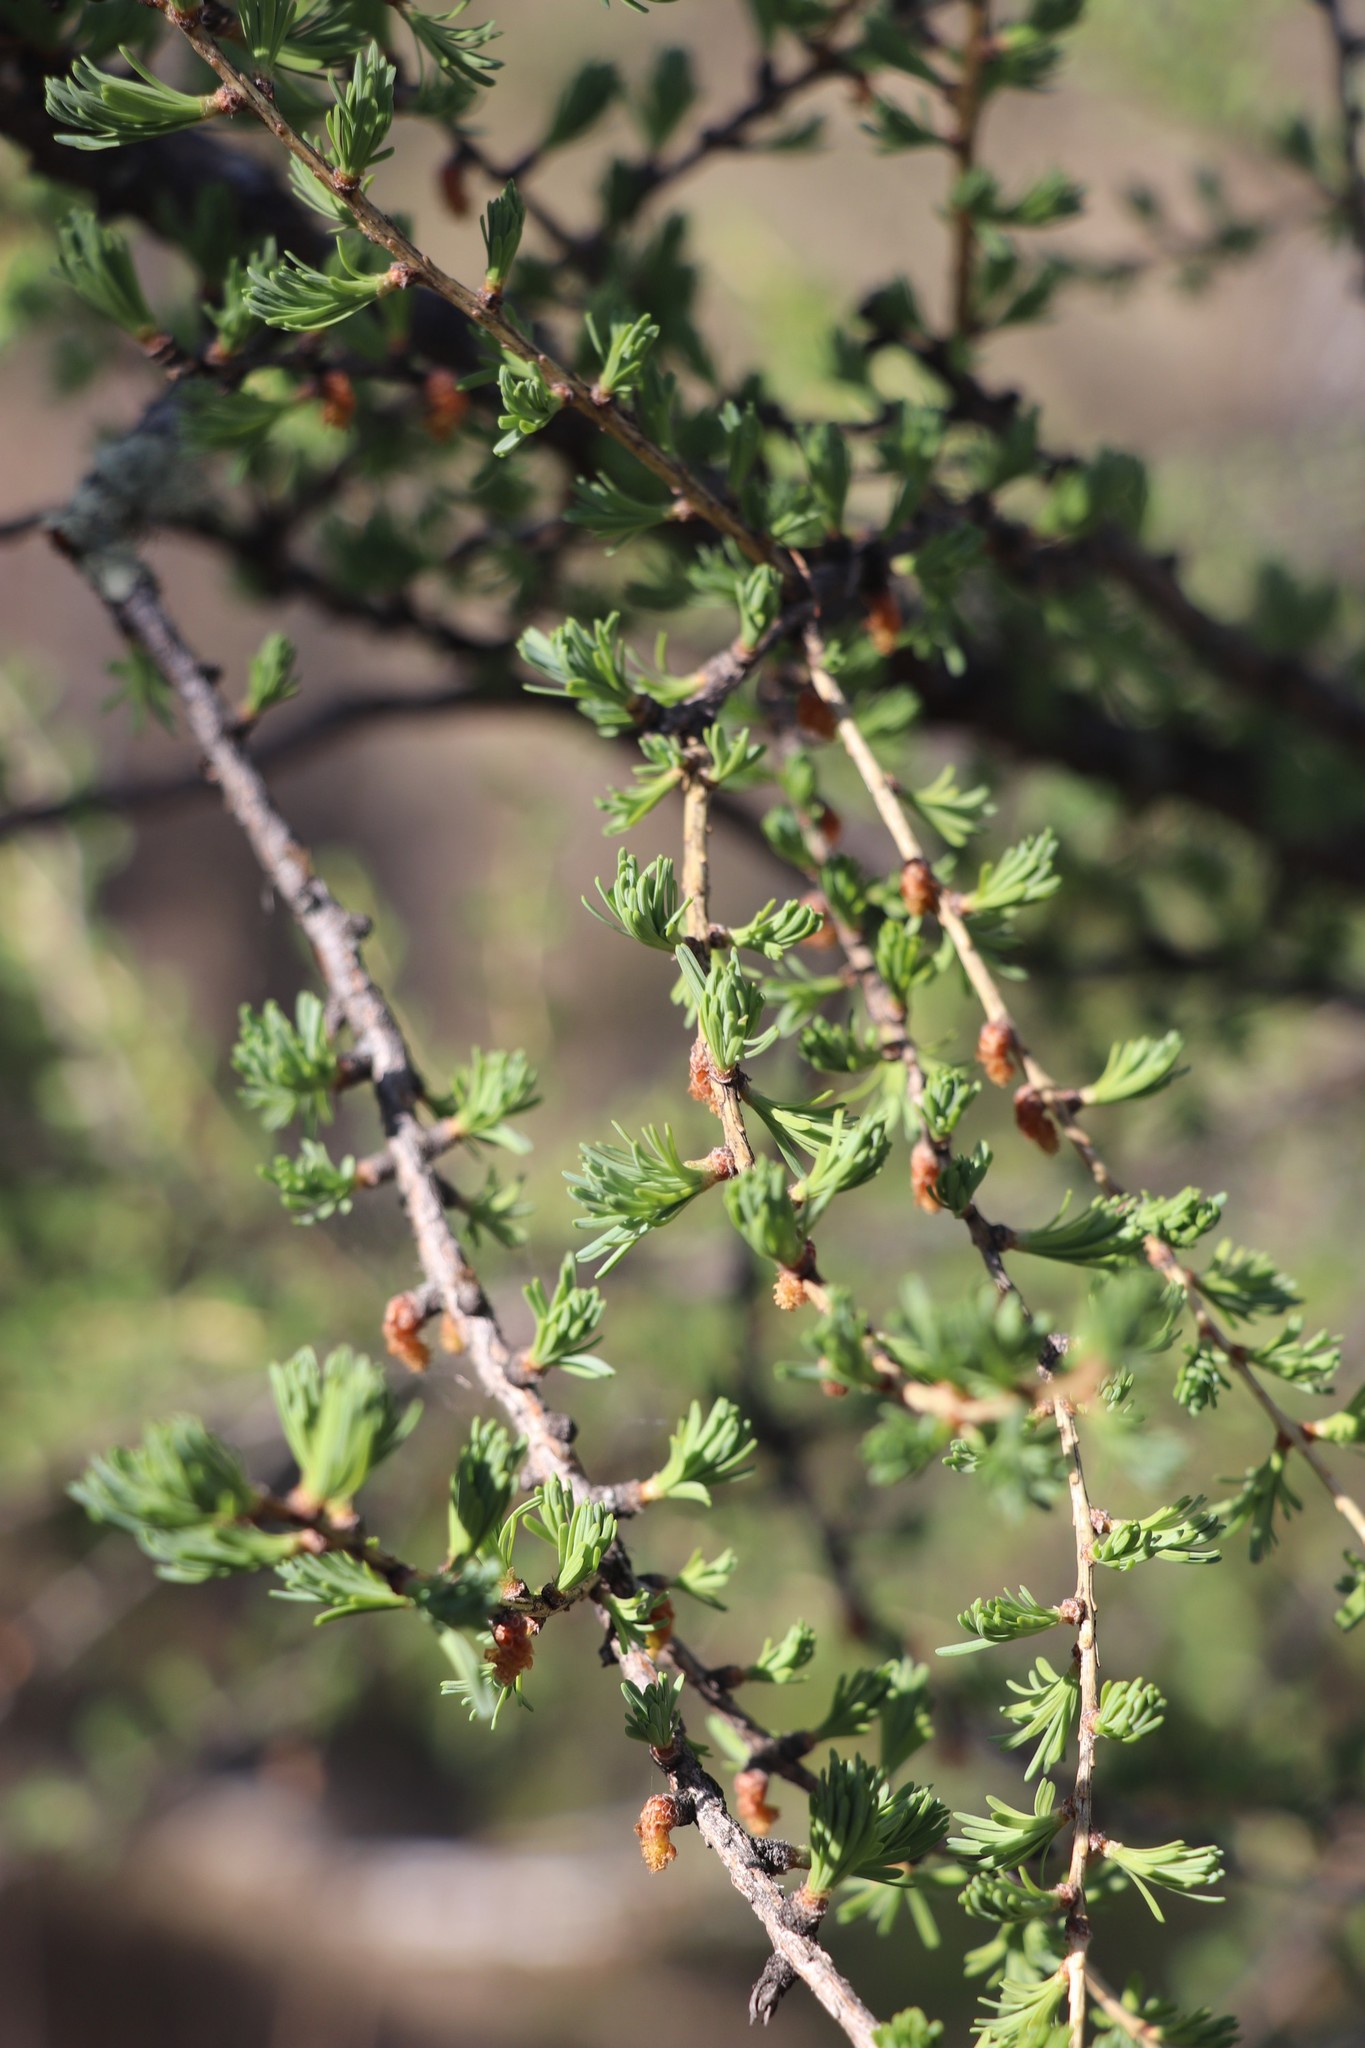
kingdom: Plantae
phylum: Tracheophyta
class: Pinopsida
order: Pinales
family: Pinaceae
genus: Larix
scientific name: Larix sibirica
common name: Siberian larch
